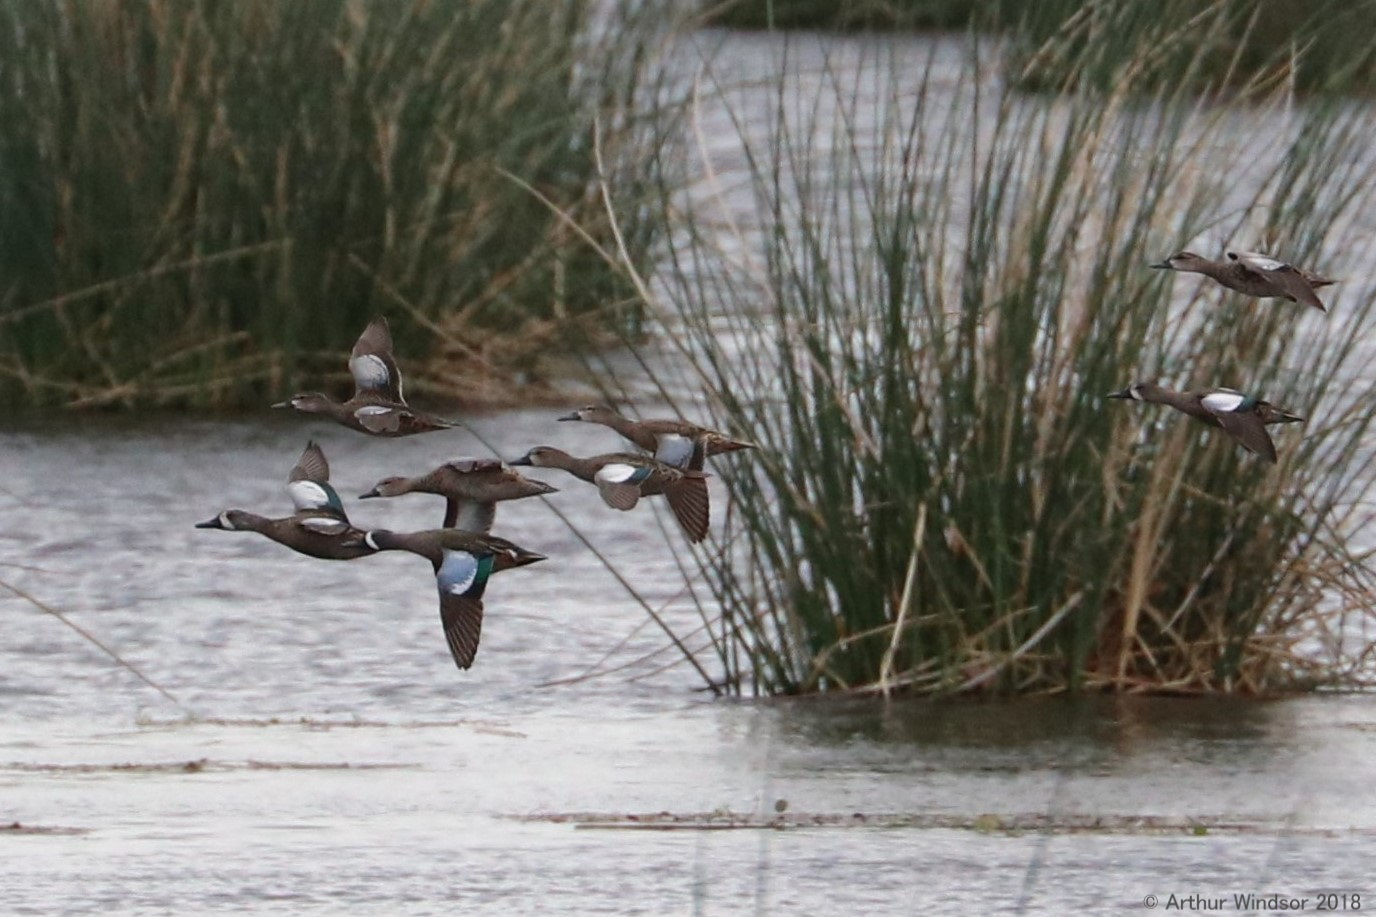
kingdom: Animalia
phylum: Chordata
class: Aves
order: Anseriformes
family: Anatidae
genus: Spatula
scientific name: Spatula discors
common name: Blue-winged teal
